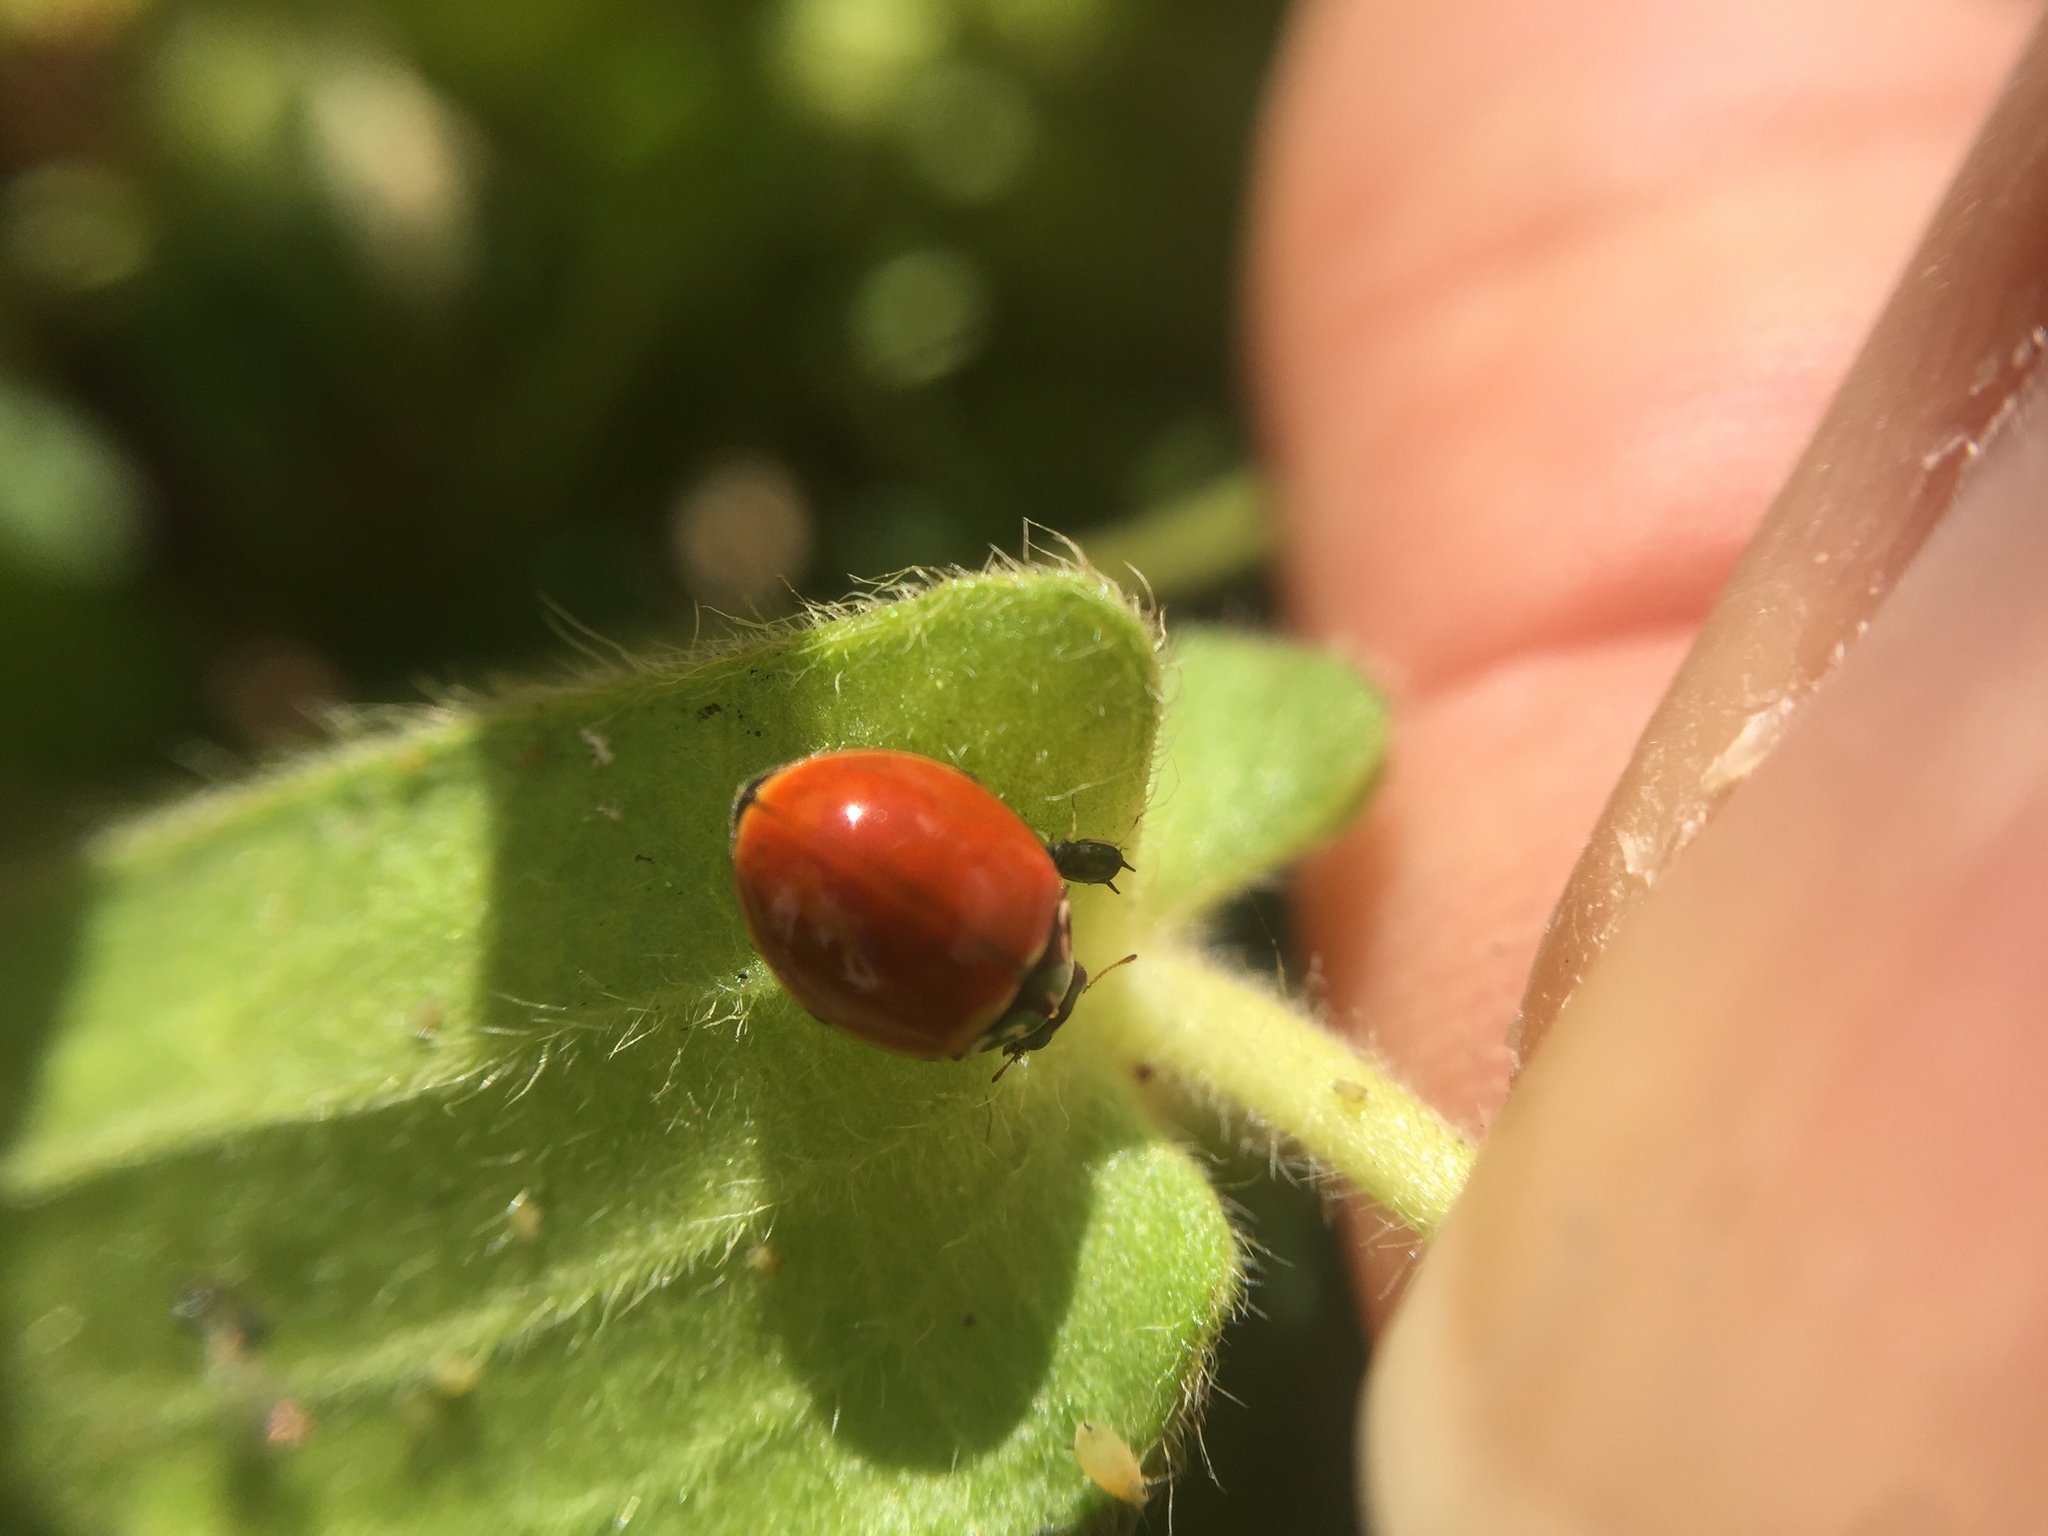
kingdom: Animalia
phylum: Arthropoda
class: Insecta
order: Coleoptera
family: Coccinellidae
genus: Cycloneda
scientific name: Cycloneda polita
